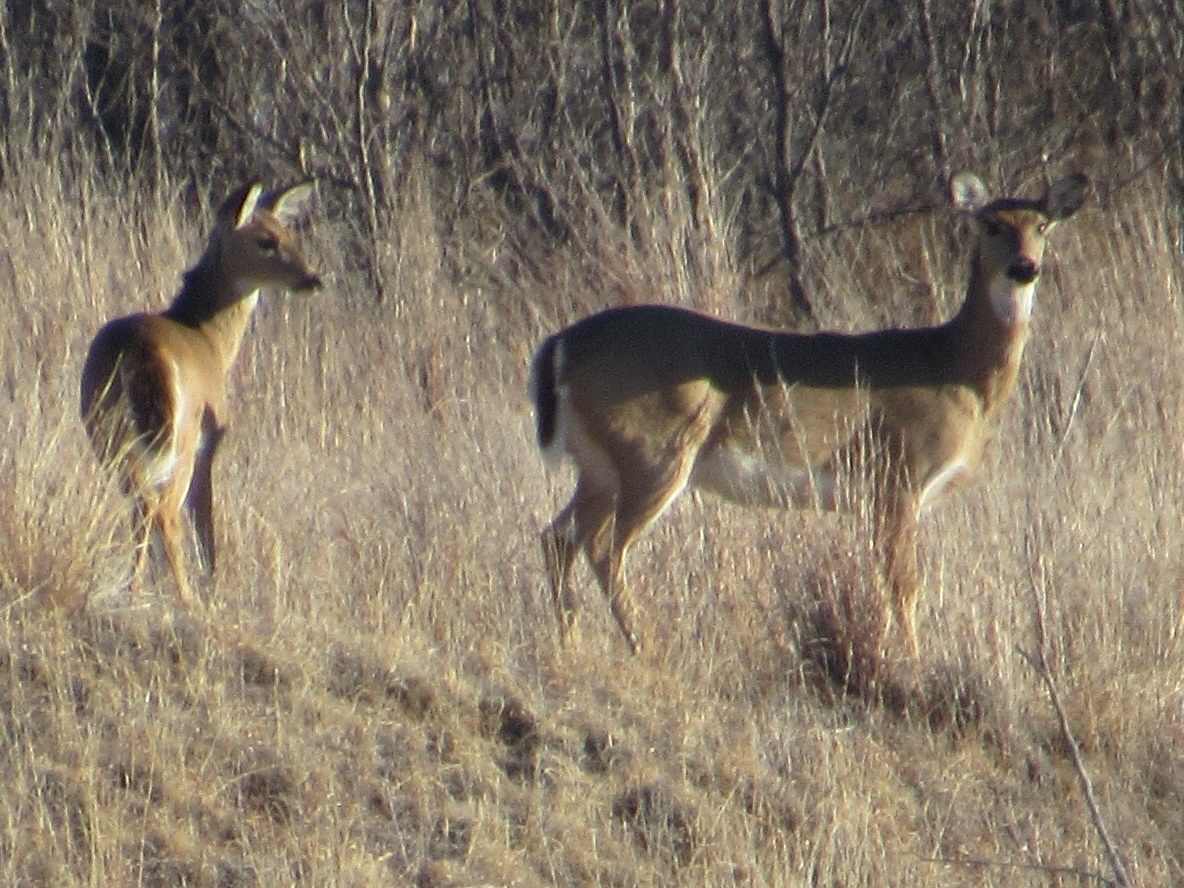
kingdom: Animalia
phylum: Chordata
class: Mammalia
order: Artiodactyla
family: Cervidae
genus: Odocoileus
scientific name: Odocoileus virginianus
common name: White-tailed deer
